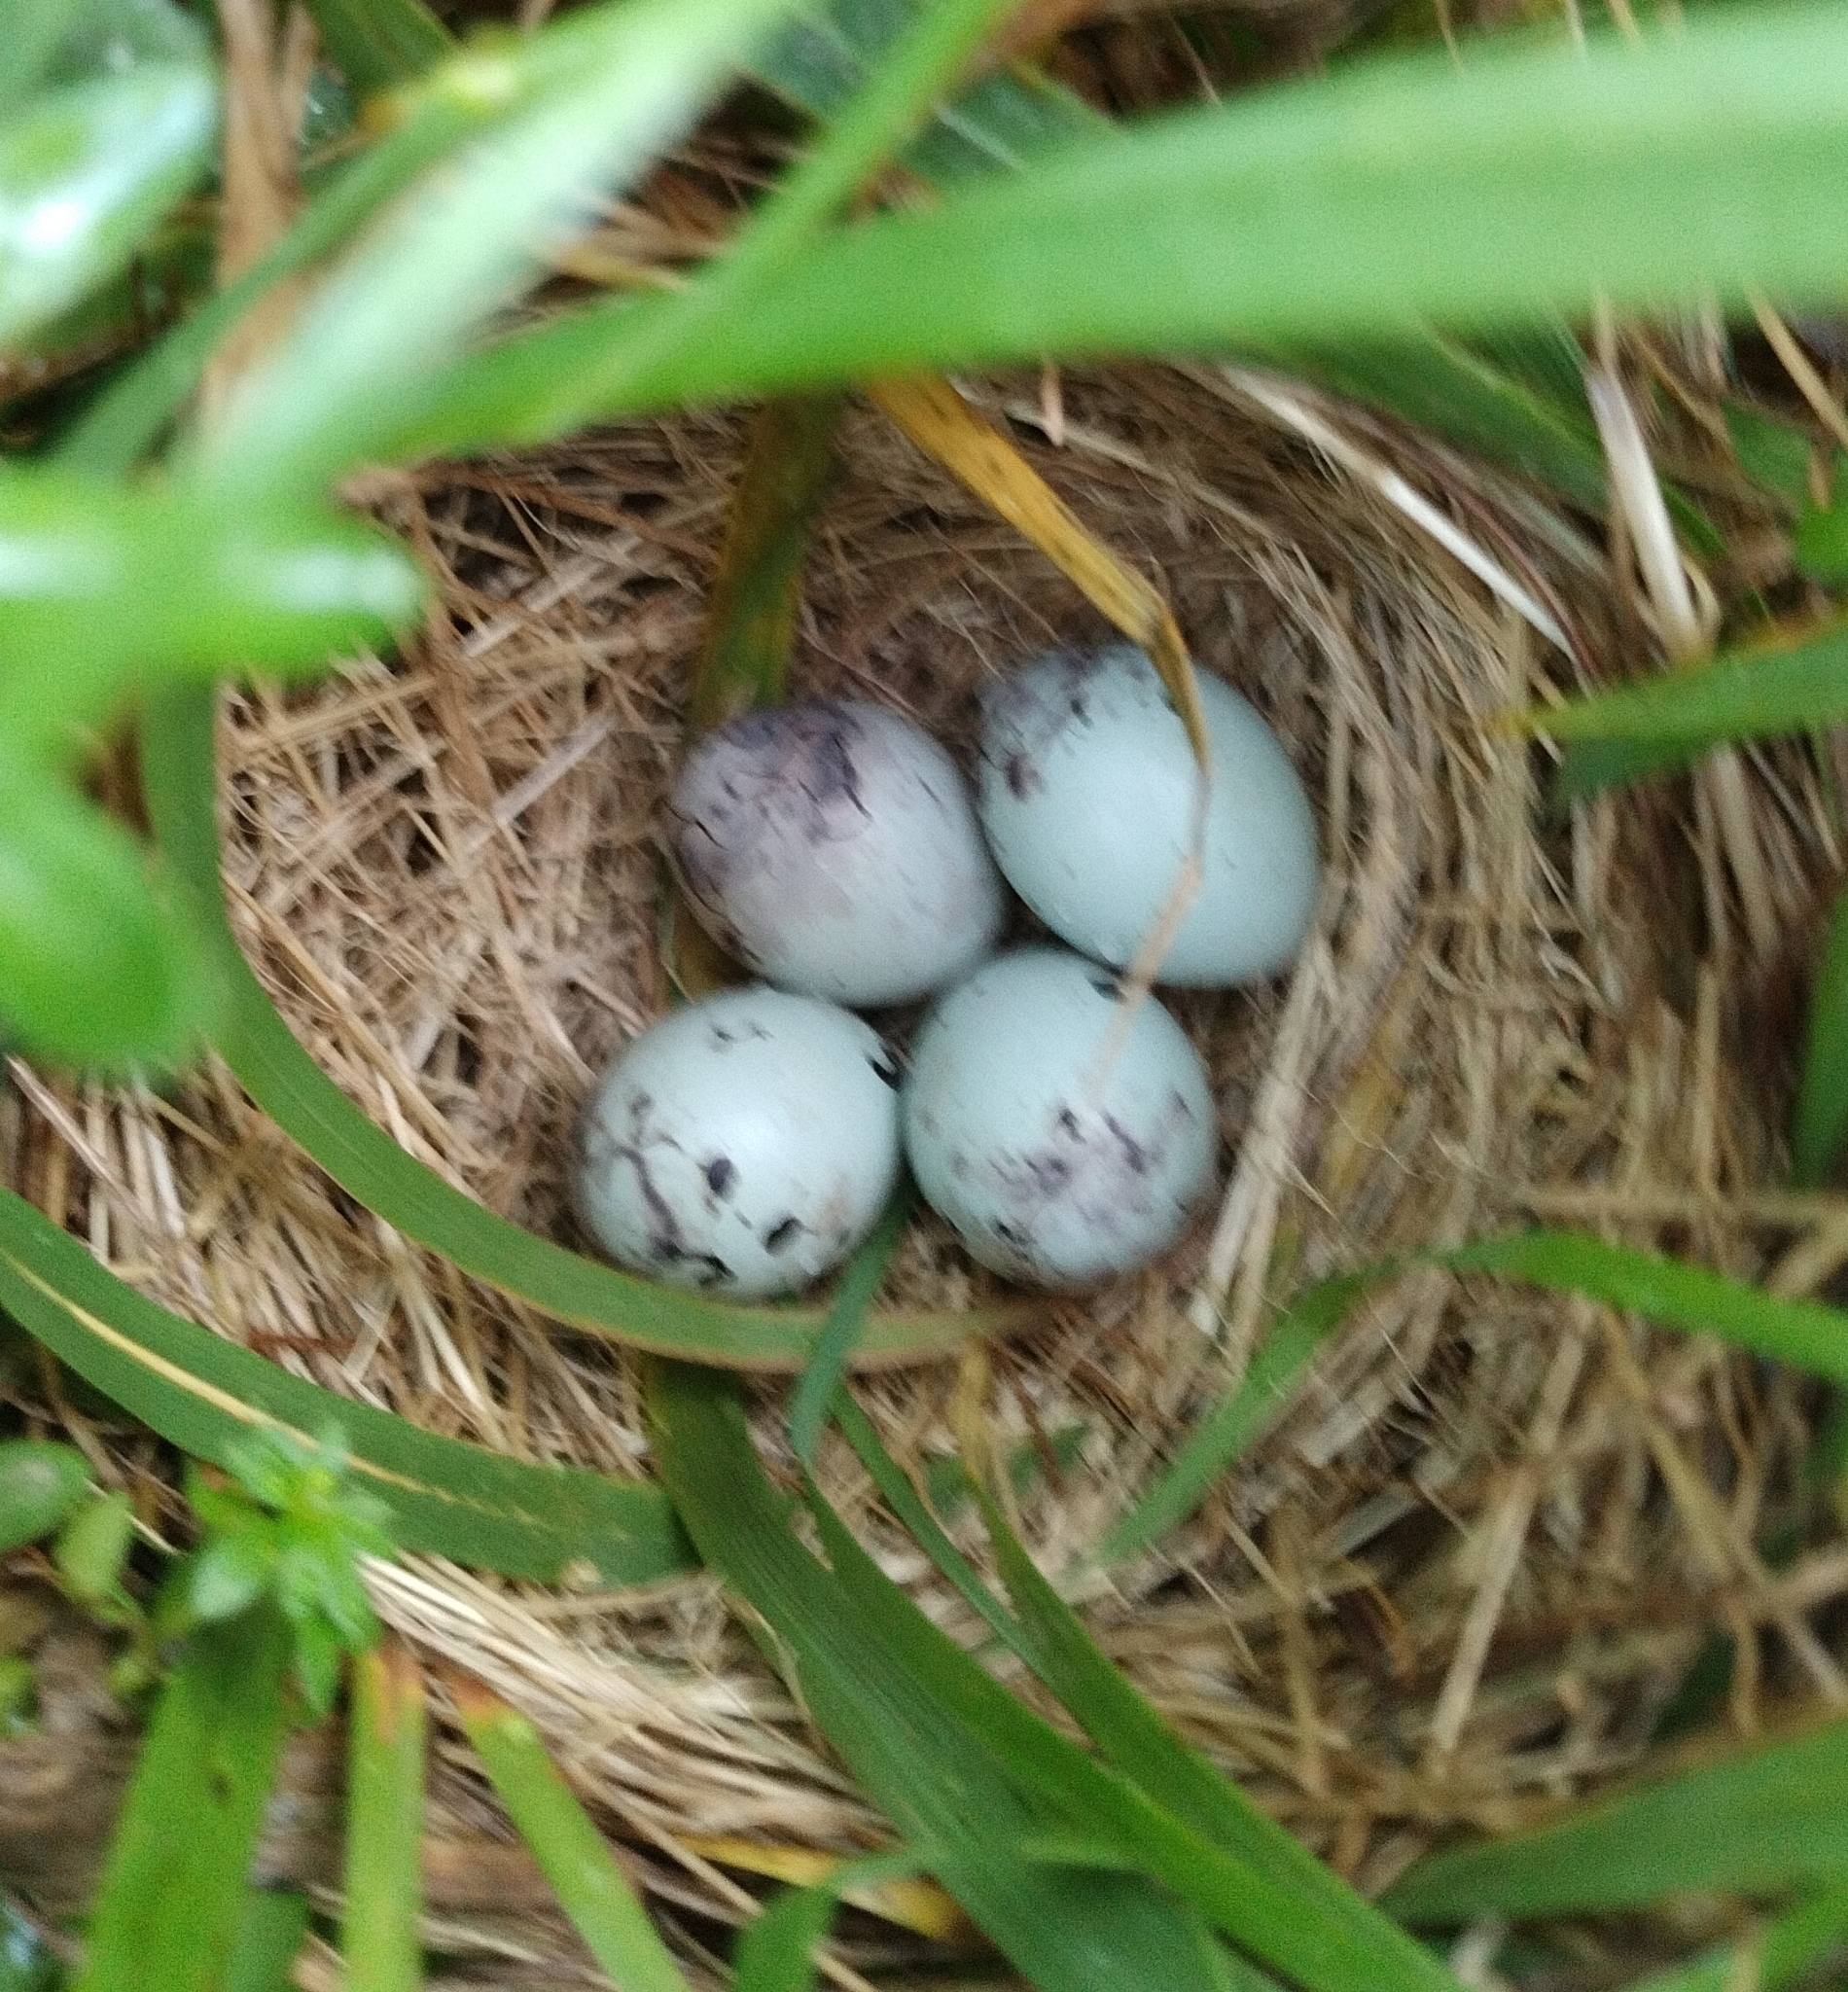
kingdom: Animalia
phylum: Chordata
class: Aves
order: Passeriformes
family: Icteridae
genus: Agelaius
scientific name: Agelaius phoeniceus
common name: Red-winged blackbird
